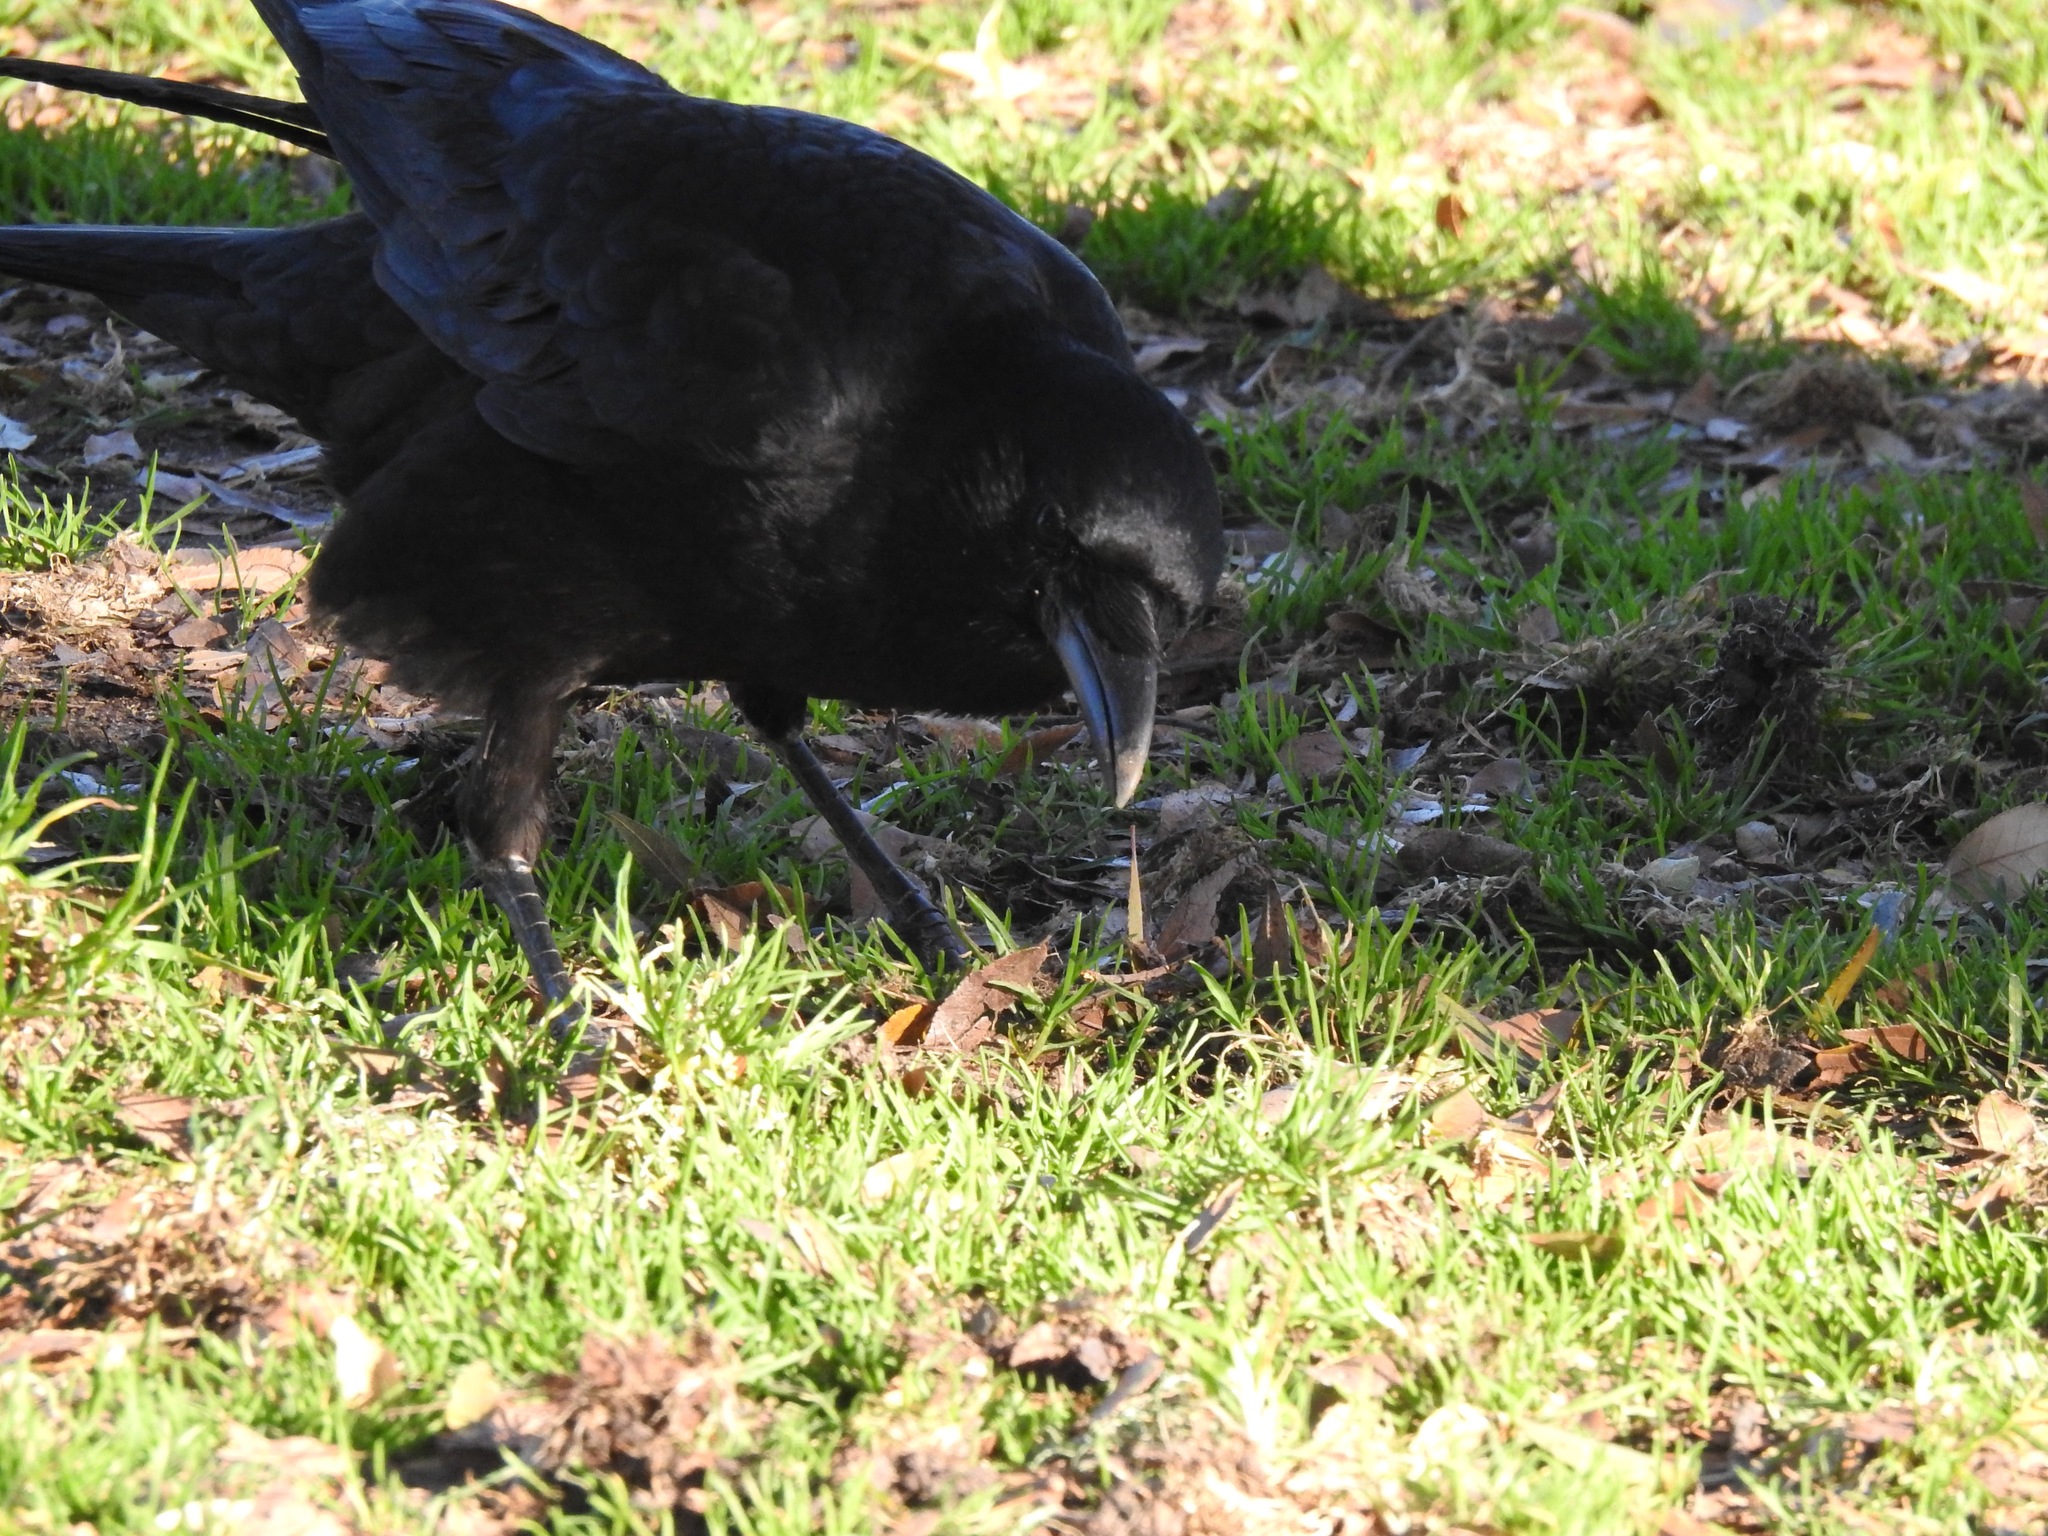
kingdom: Animalia
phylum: Chordata
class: Aves
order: Passeriformes
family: Corvidae
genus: Corvus
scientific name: Corvus brachyrhynchos
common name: American crow
